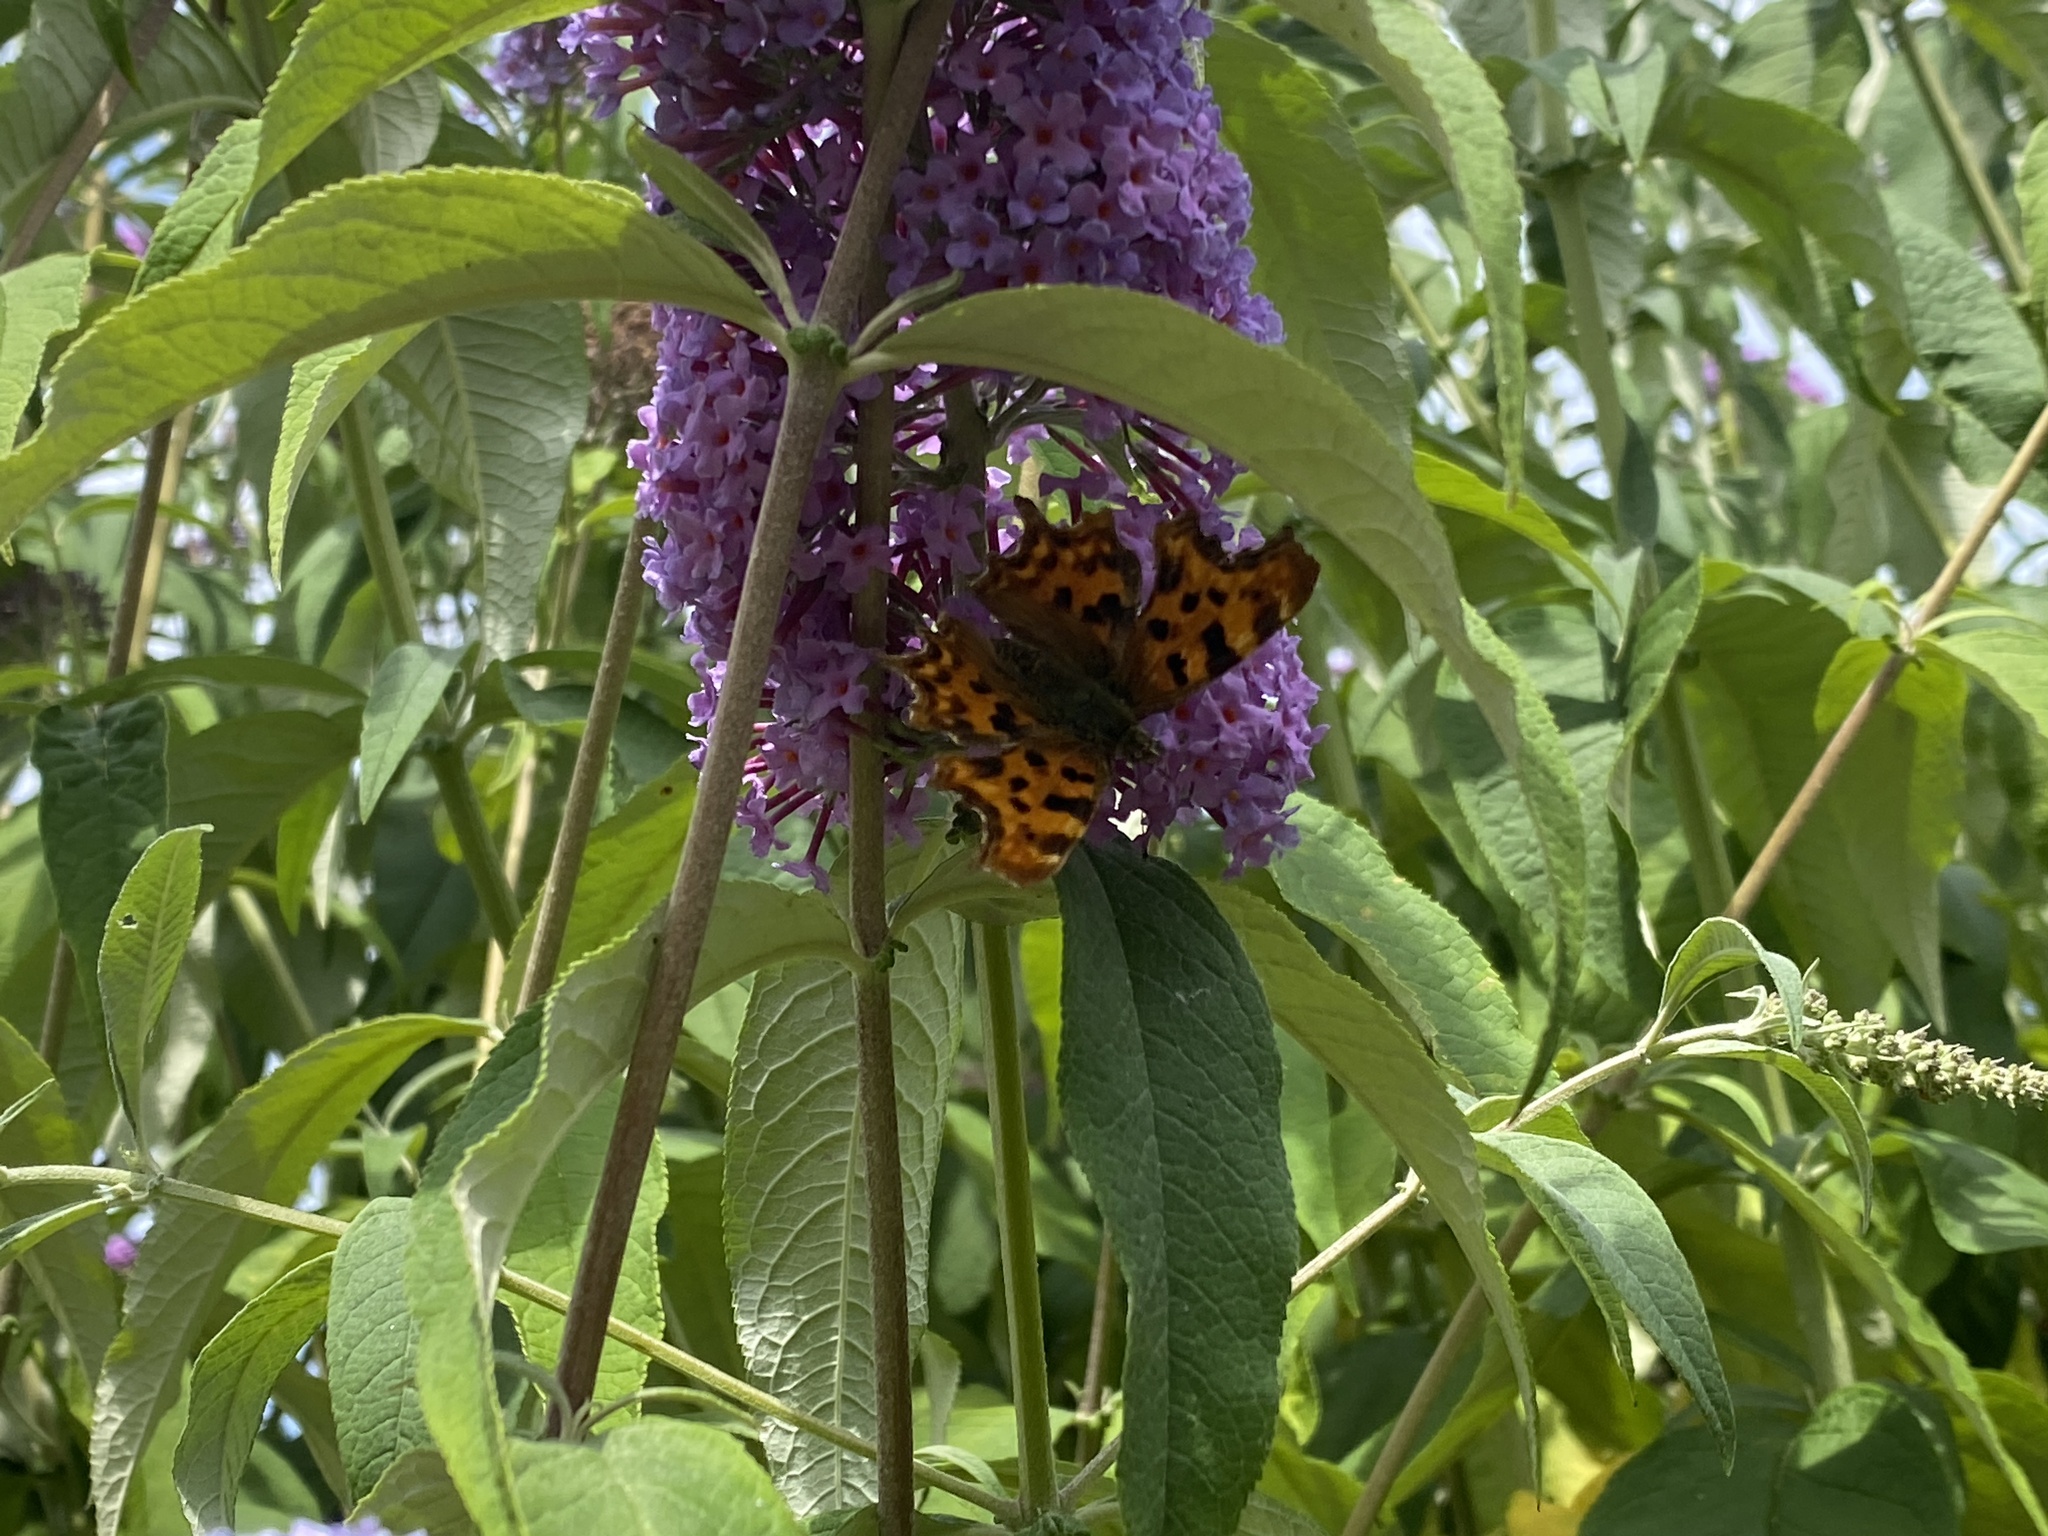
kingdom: Animalia
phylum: Arthropoda
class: Insecta
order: Lepidoptera
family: Nymphalidae
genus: Polygonia
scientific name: Polygonia c-album
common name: Comma
